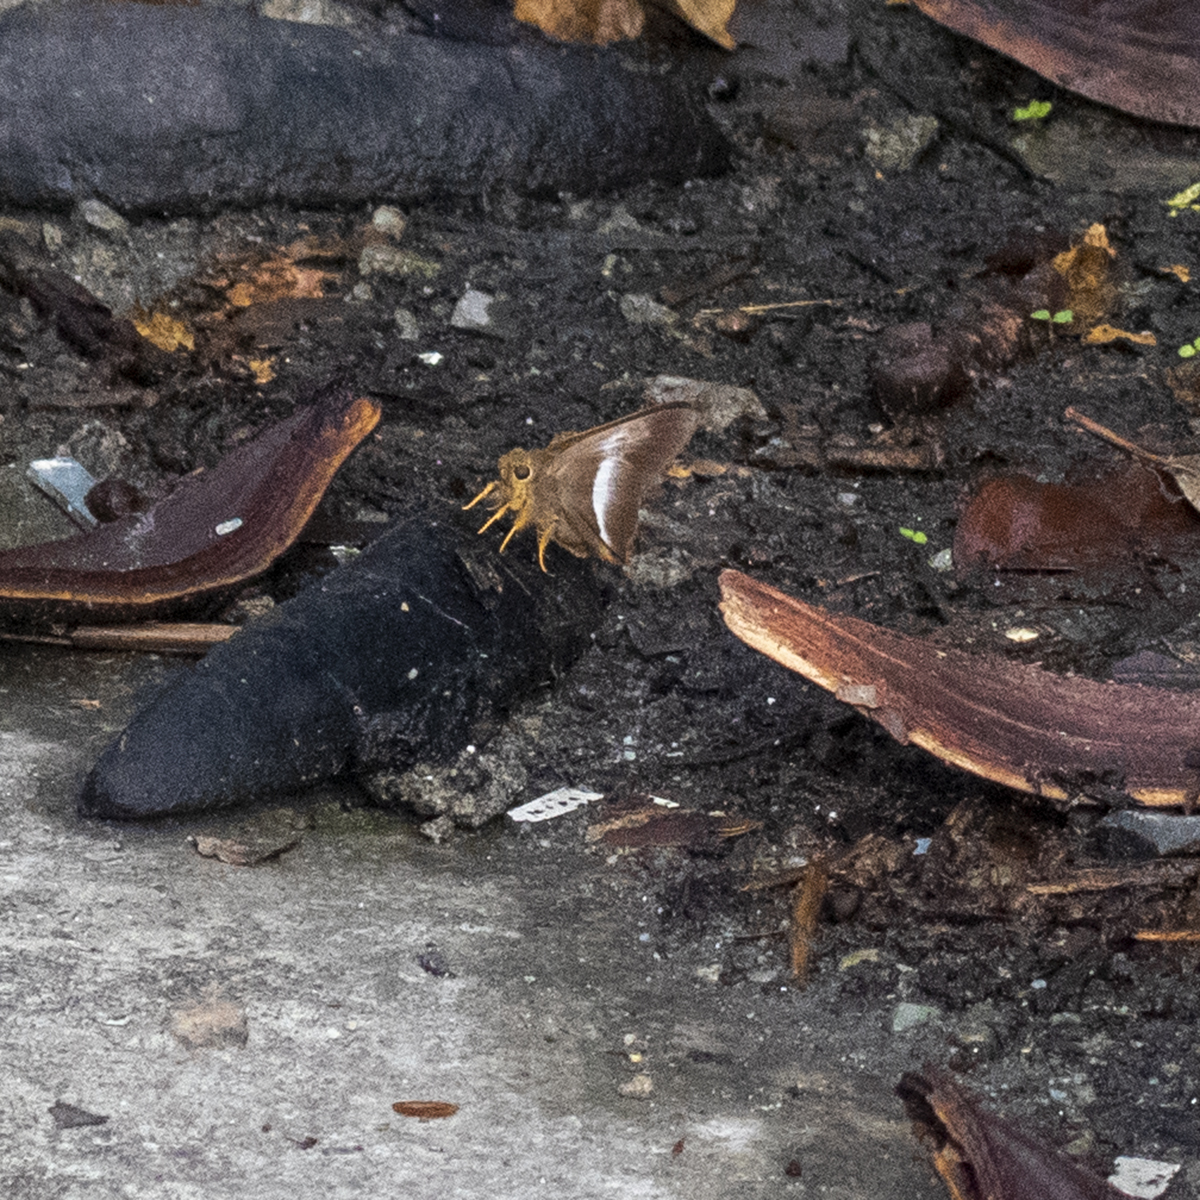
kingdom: Animalia
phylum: Arthropoda
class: Insecta
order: Lepidoptera
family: Hesperiidae
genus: Bibasis
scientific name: Bibasis sena
